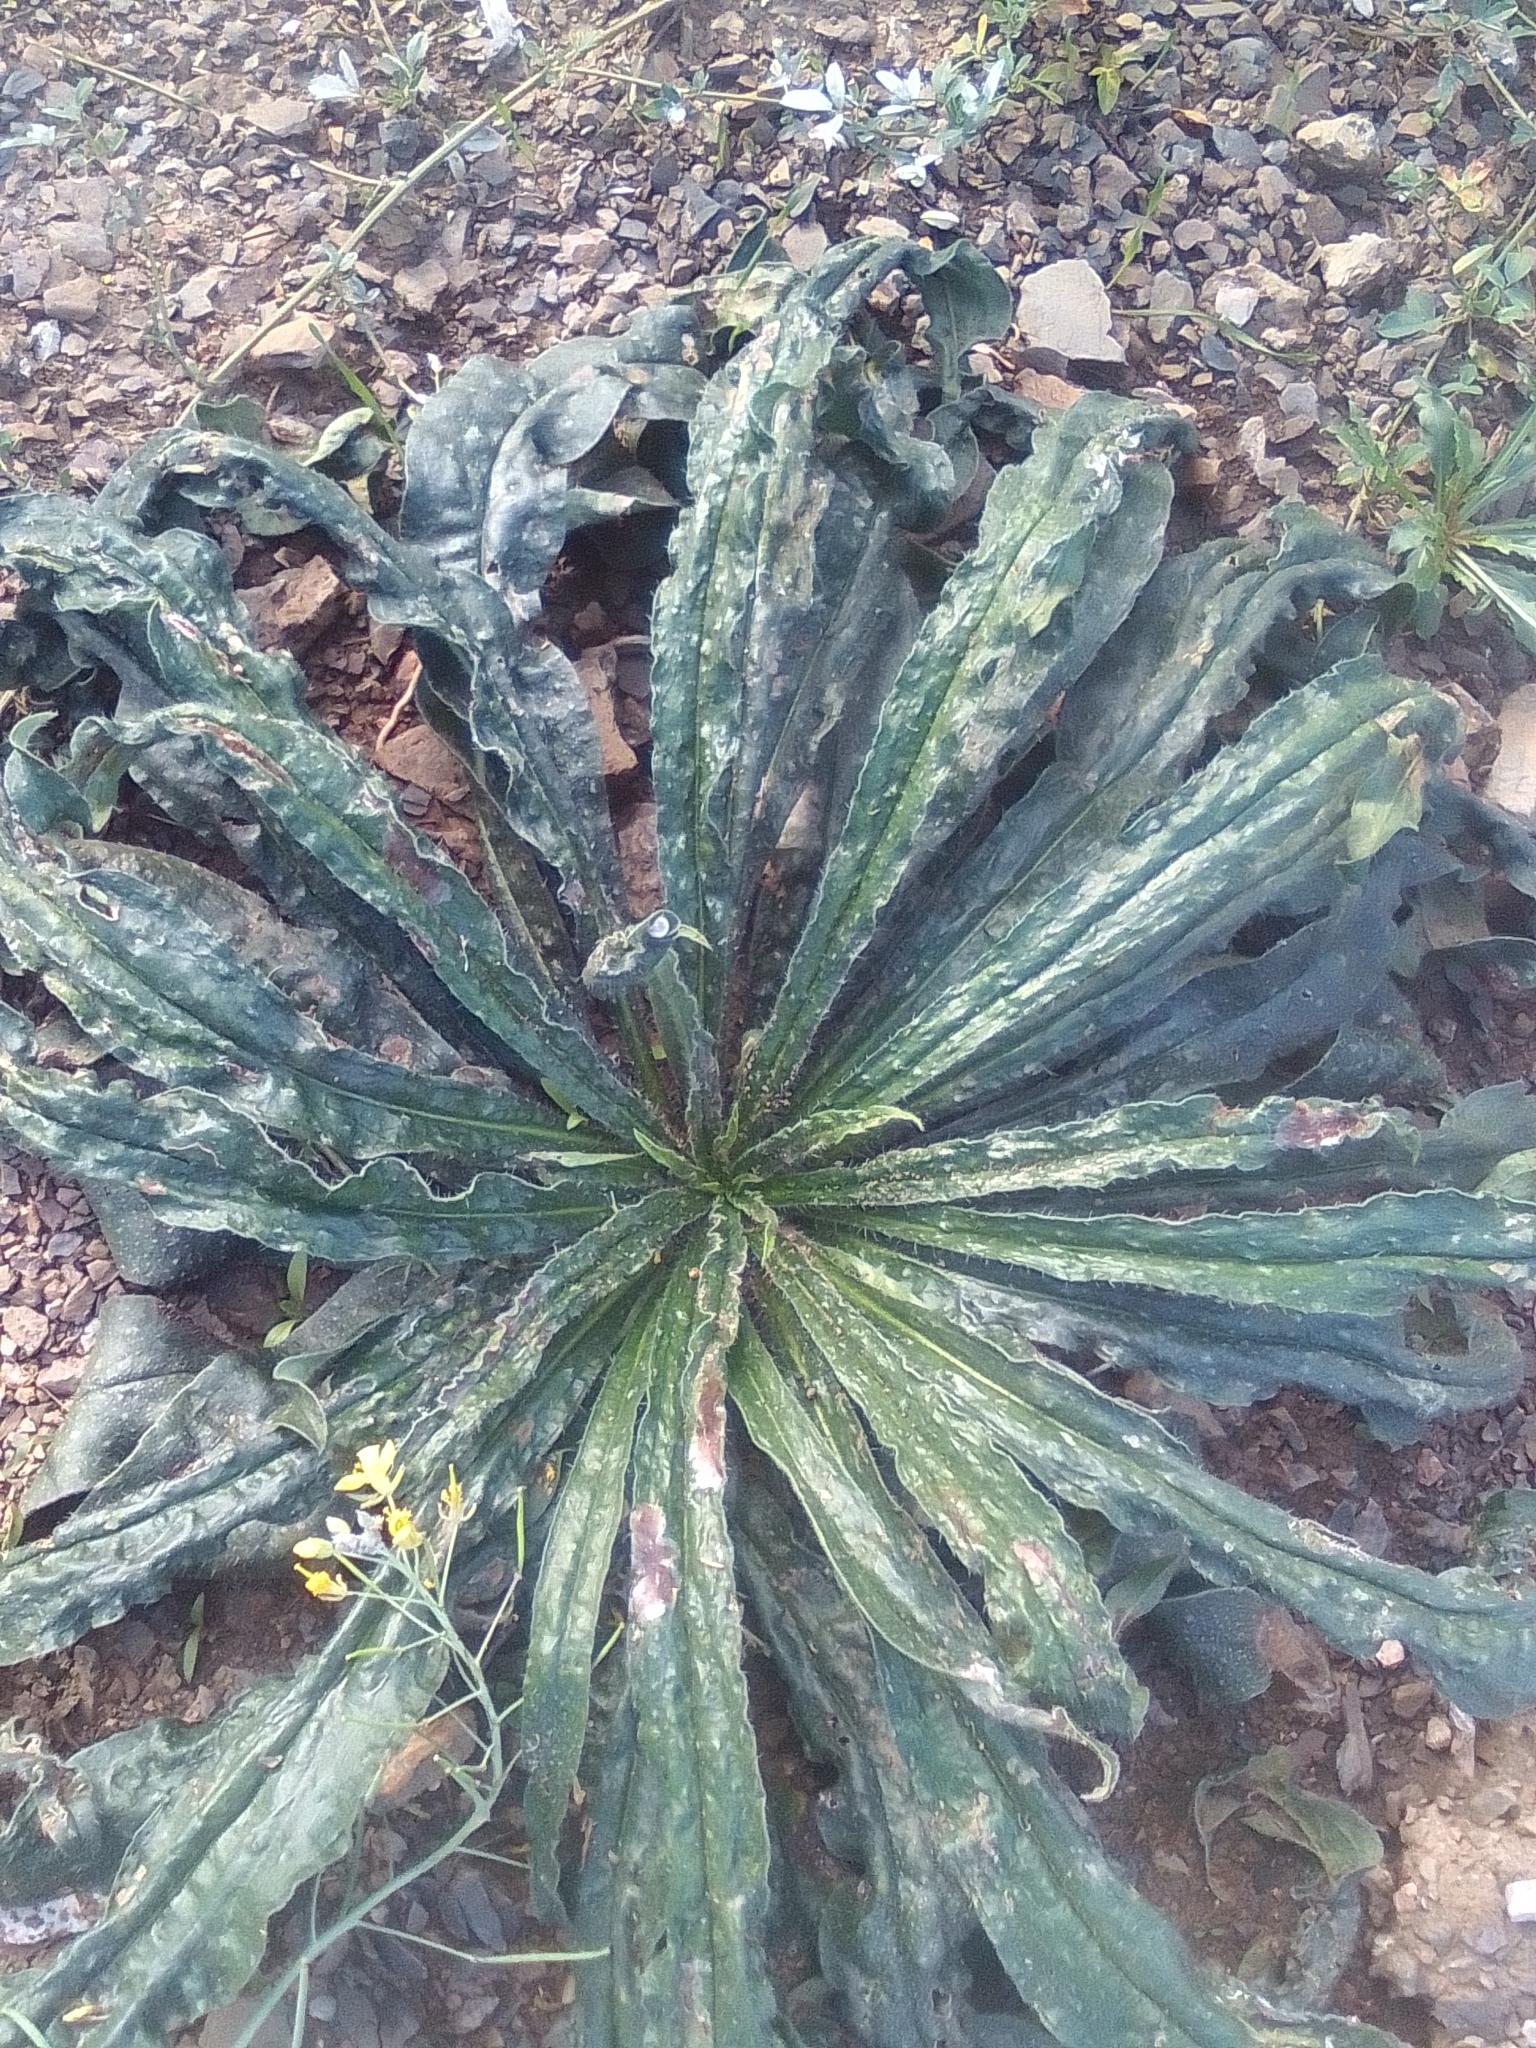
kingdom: Plantae
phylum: Tracheophyta
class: Magnoliopsida
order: Boraginales
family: Boraginaceae
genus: Echium
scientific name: Echium vulgare
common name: Common viper's bugloss
